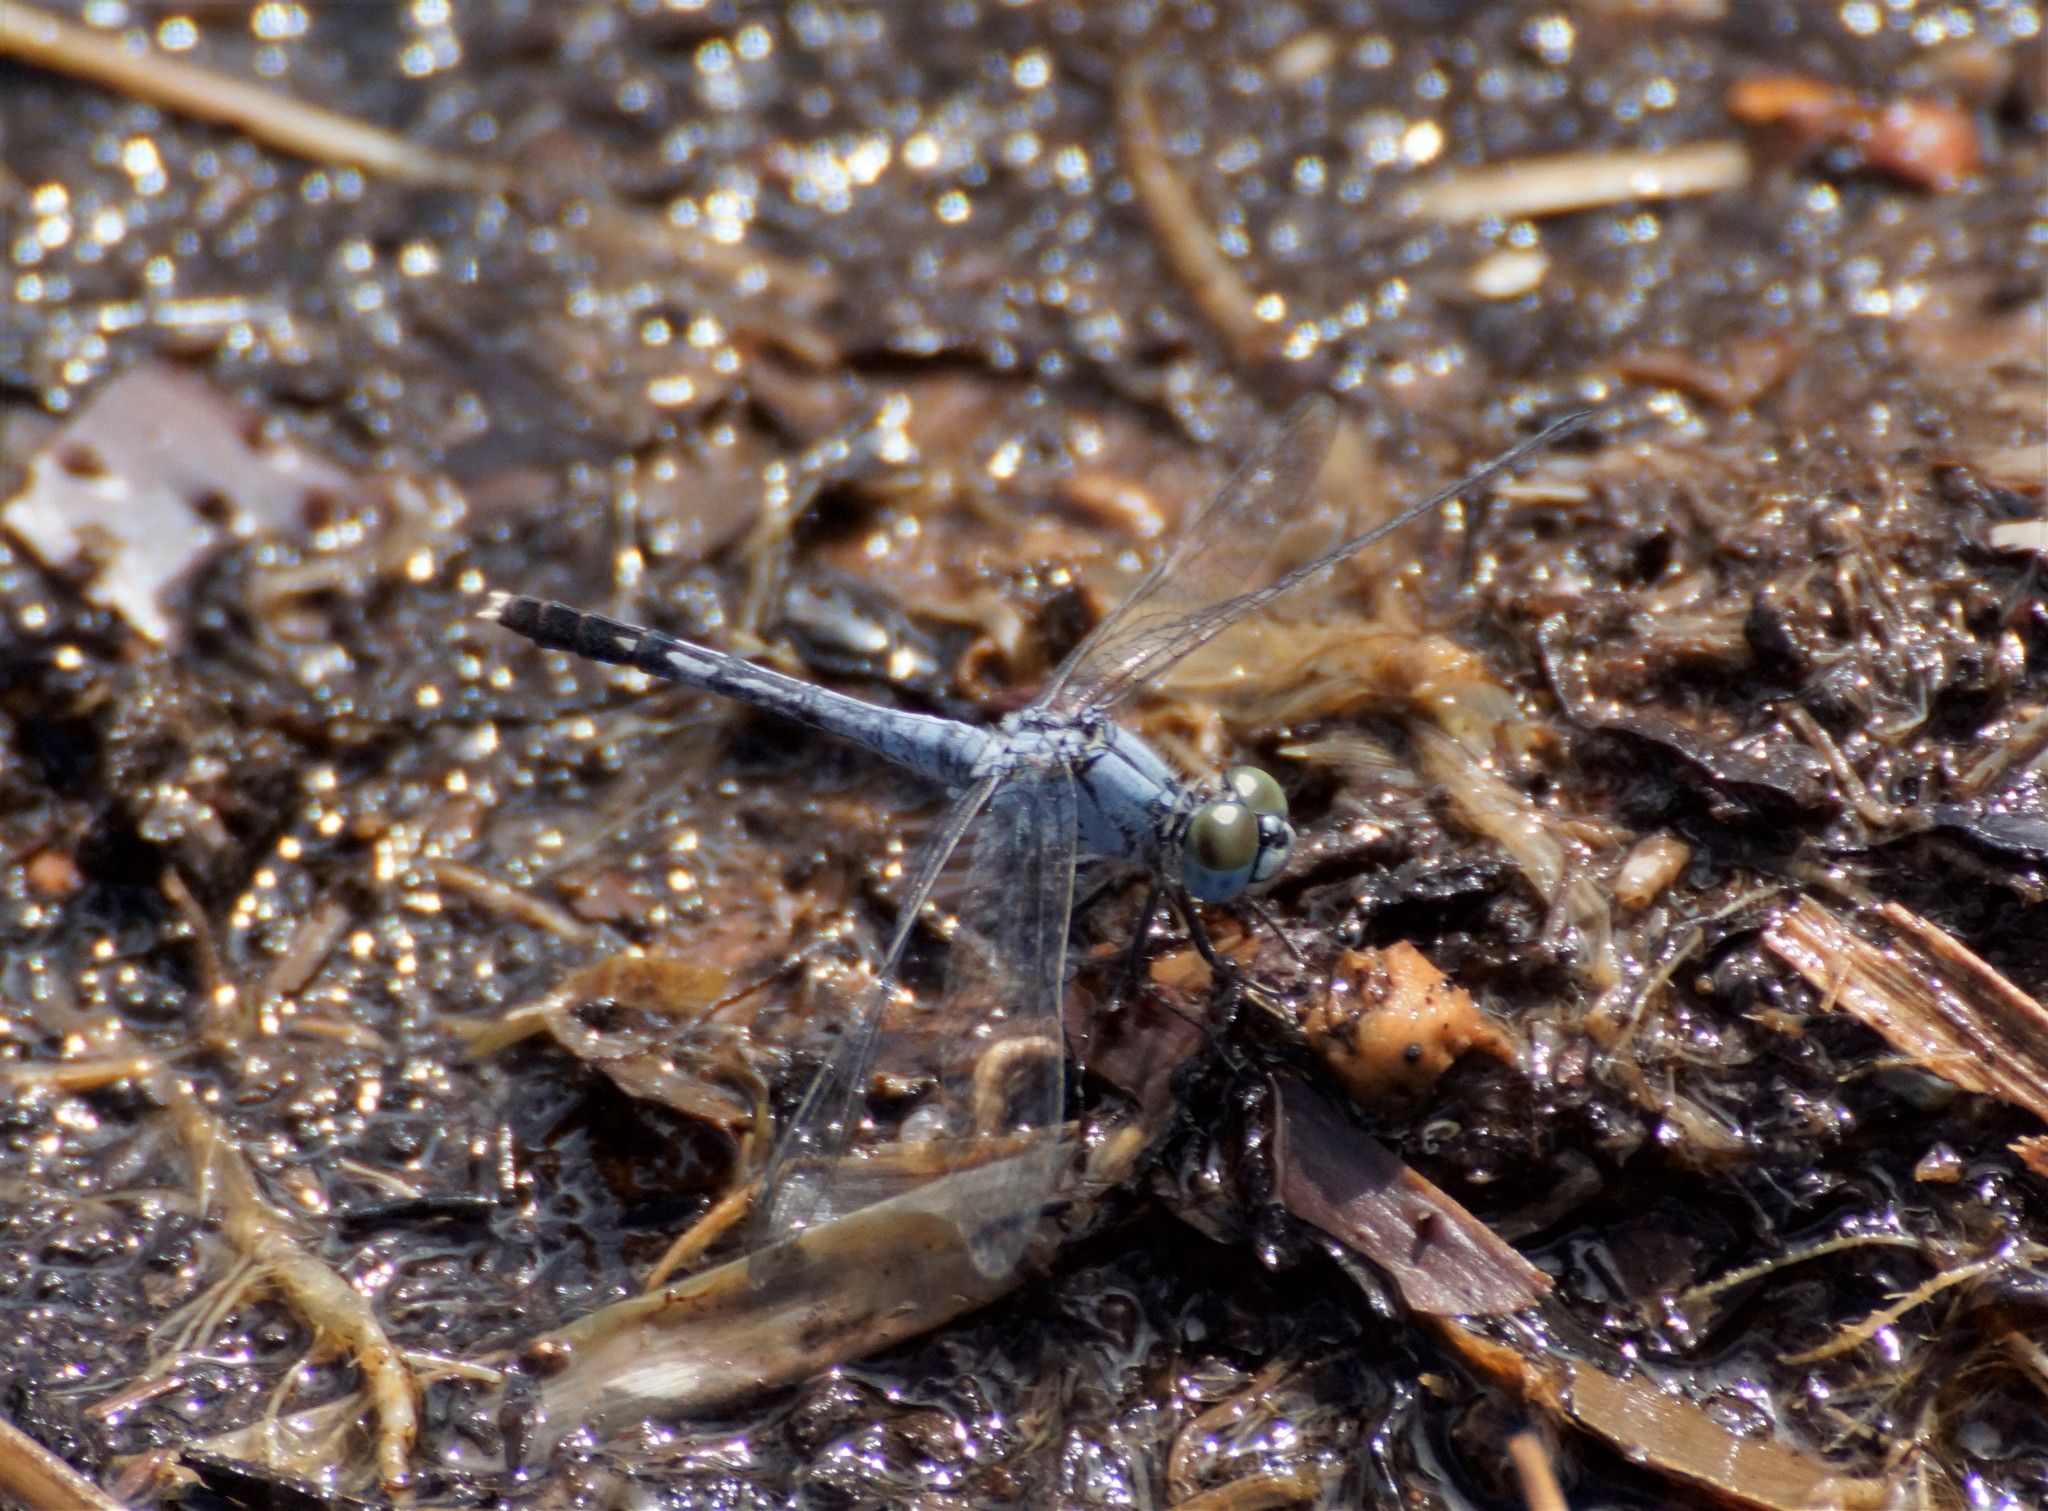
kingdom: Animalia
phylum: Arthropoda
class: Insecta
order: Odonata
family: Libellulidae
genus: Diplacodes
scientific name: Diplacodes trivialis
